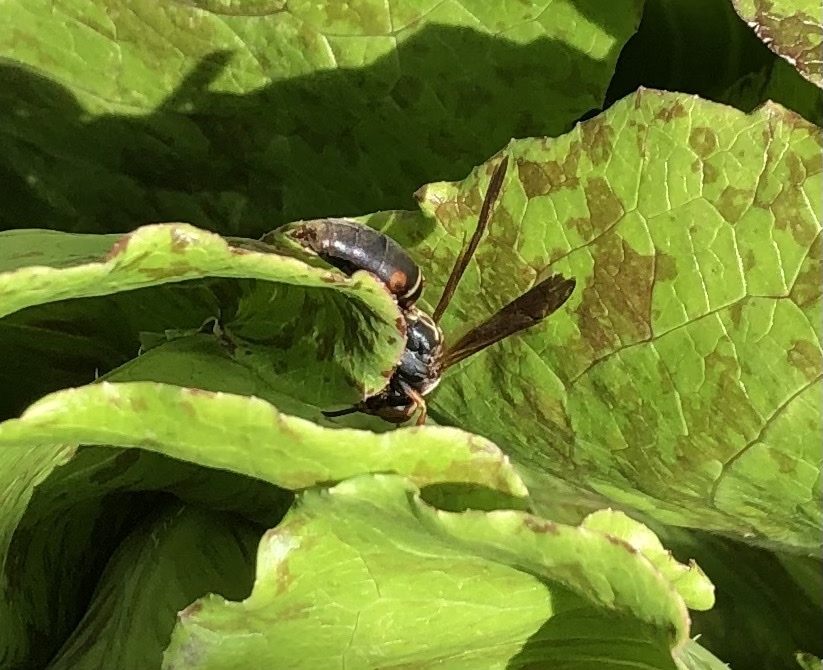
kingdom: Animalia
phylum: Arthropoda
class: Insecta
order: Hymenoptera
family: Eumenidae
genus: Polistes
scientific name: Polistes fuscatus
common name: Dark paper wasp
